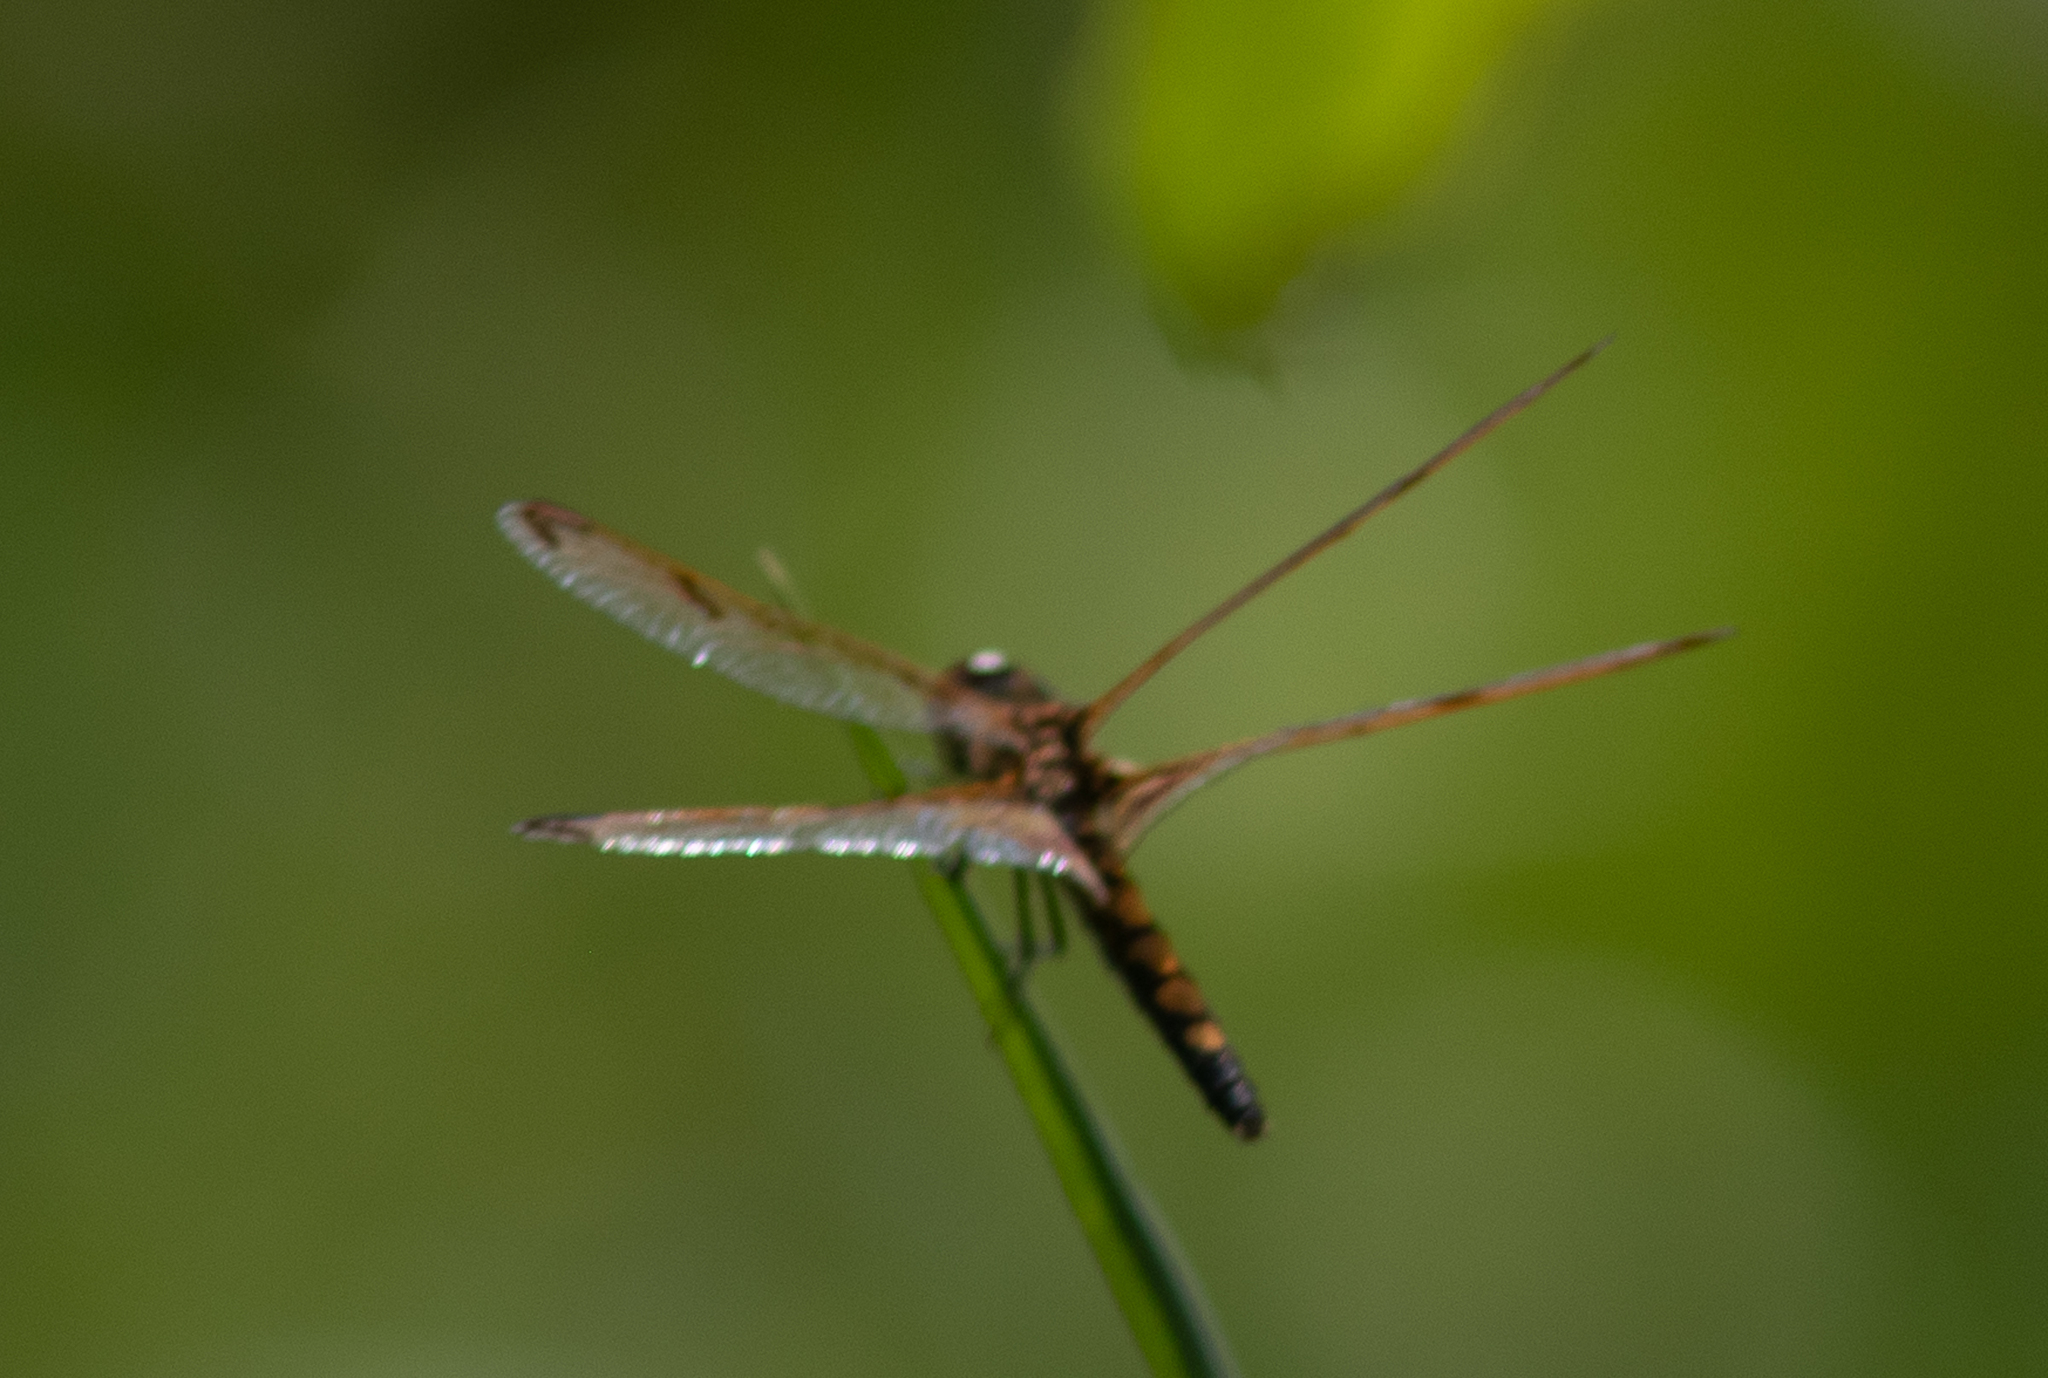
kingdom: Animalia
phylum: Arthropoda
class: Insecta
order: Odonata
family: Libellulidae
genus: Celithemis
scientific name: Celithemis elisa
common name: Calico pennant
